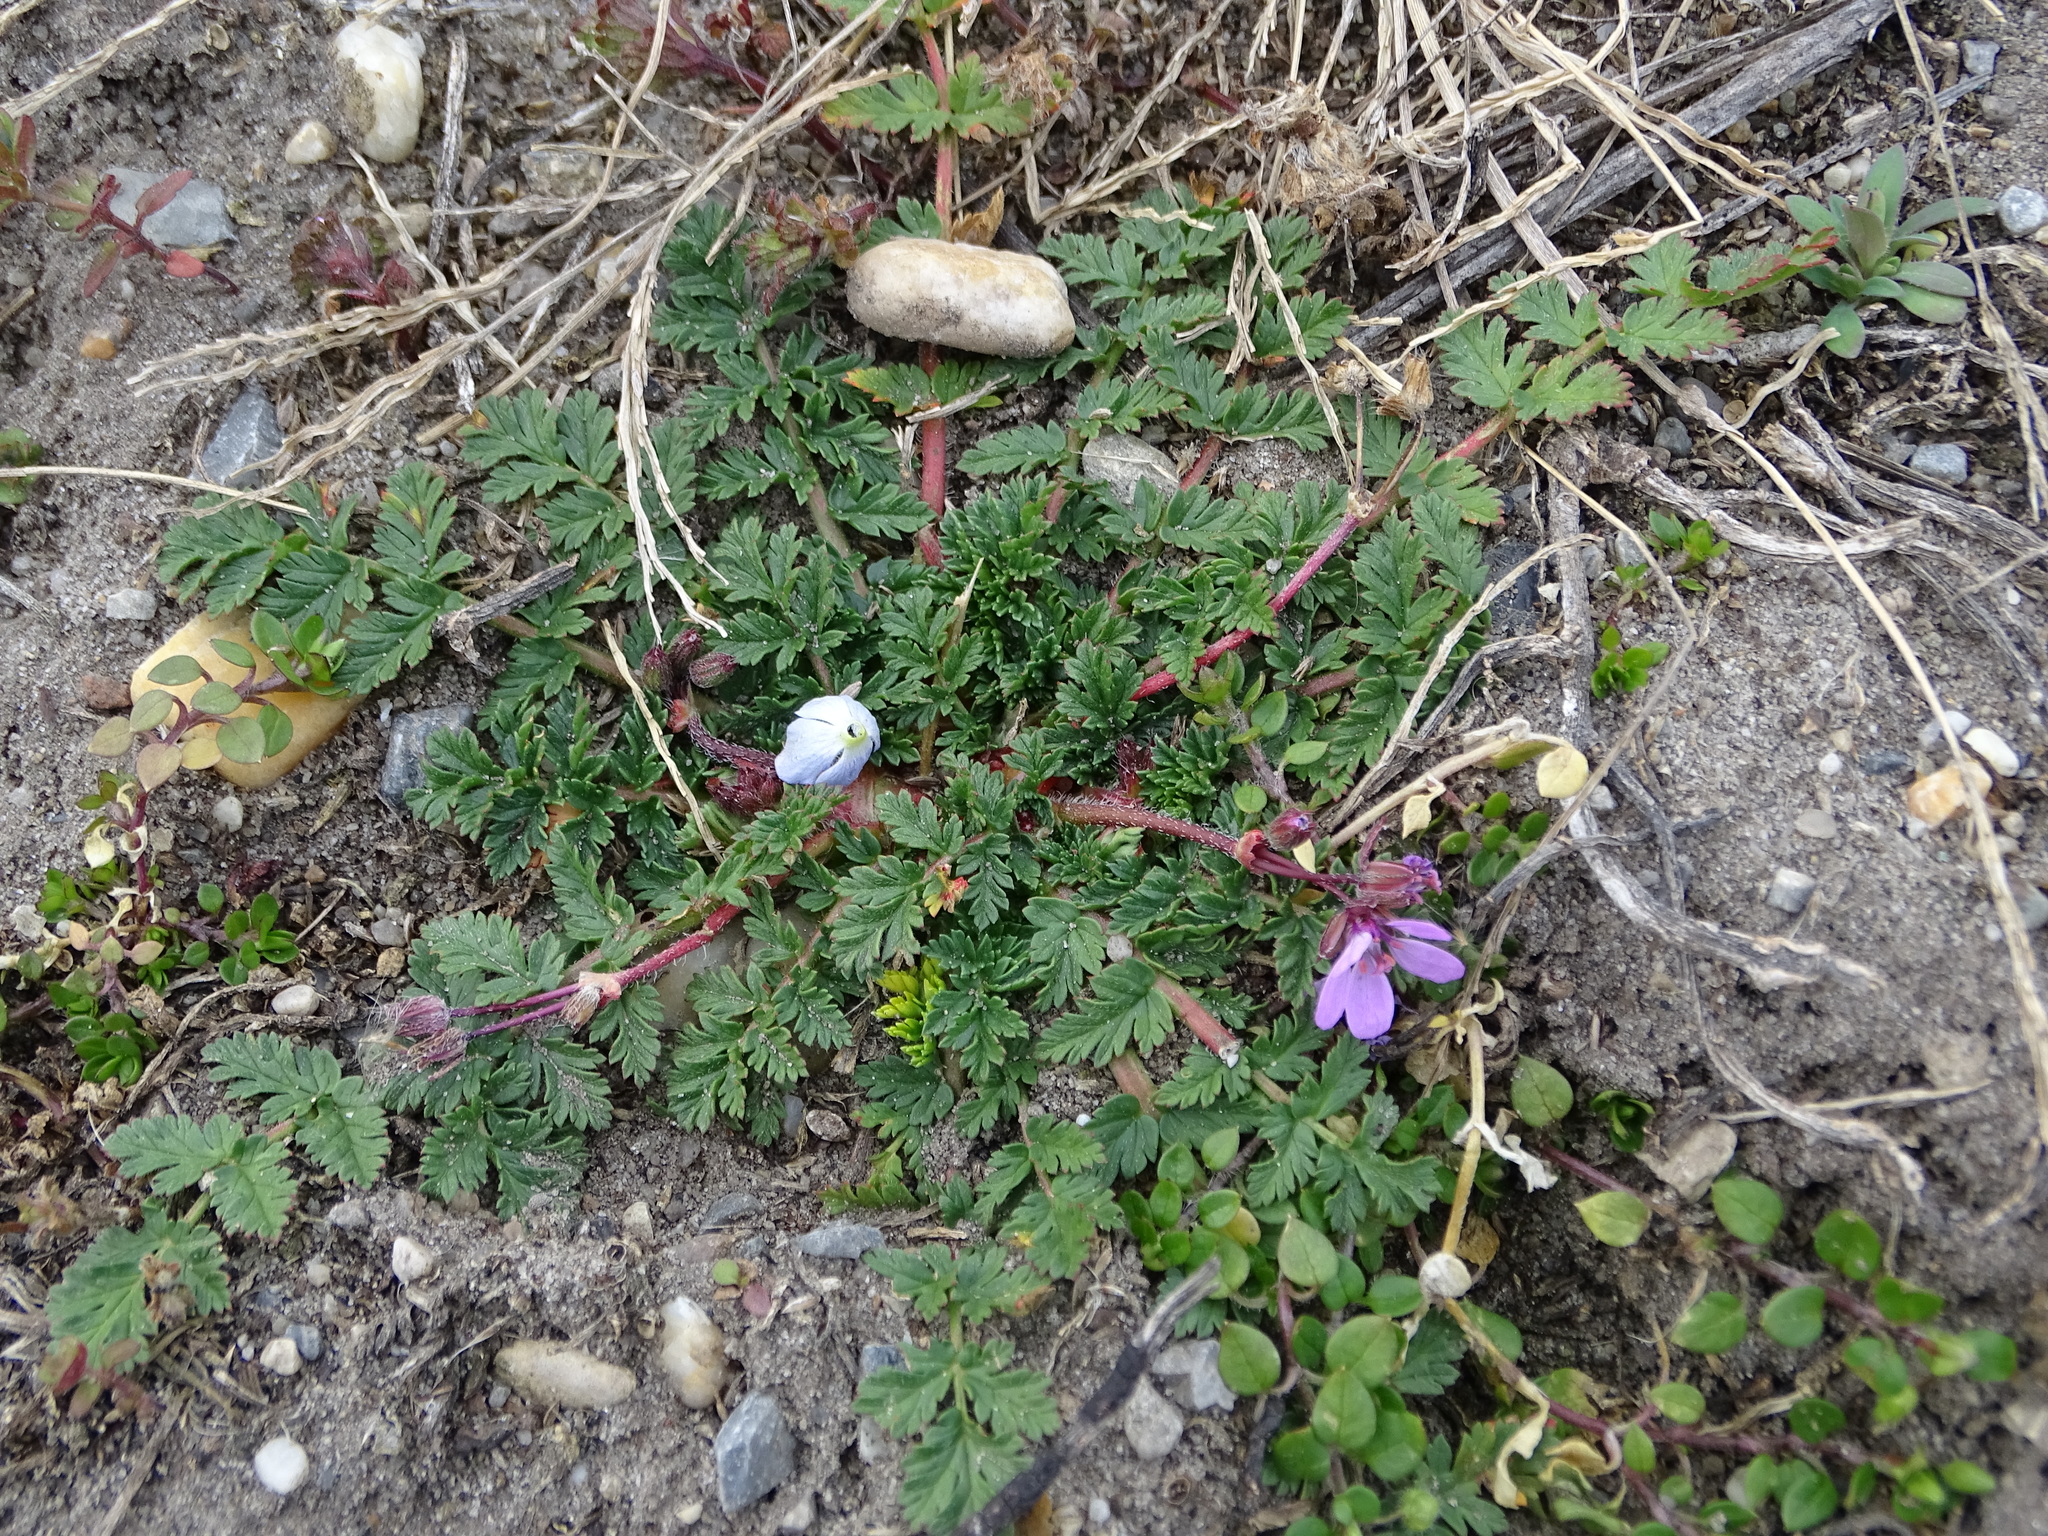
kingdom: Plantae
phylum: Tracheophyta
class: Magnoliopsida
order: Geraniales
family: Geraniaceae
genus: Erodium
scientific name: Erodium cicutarium
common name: Common stork's-bill
